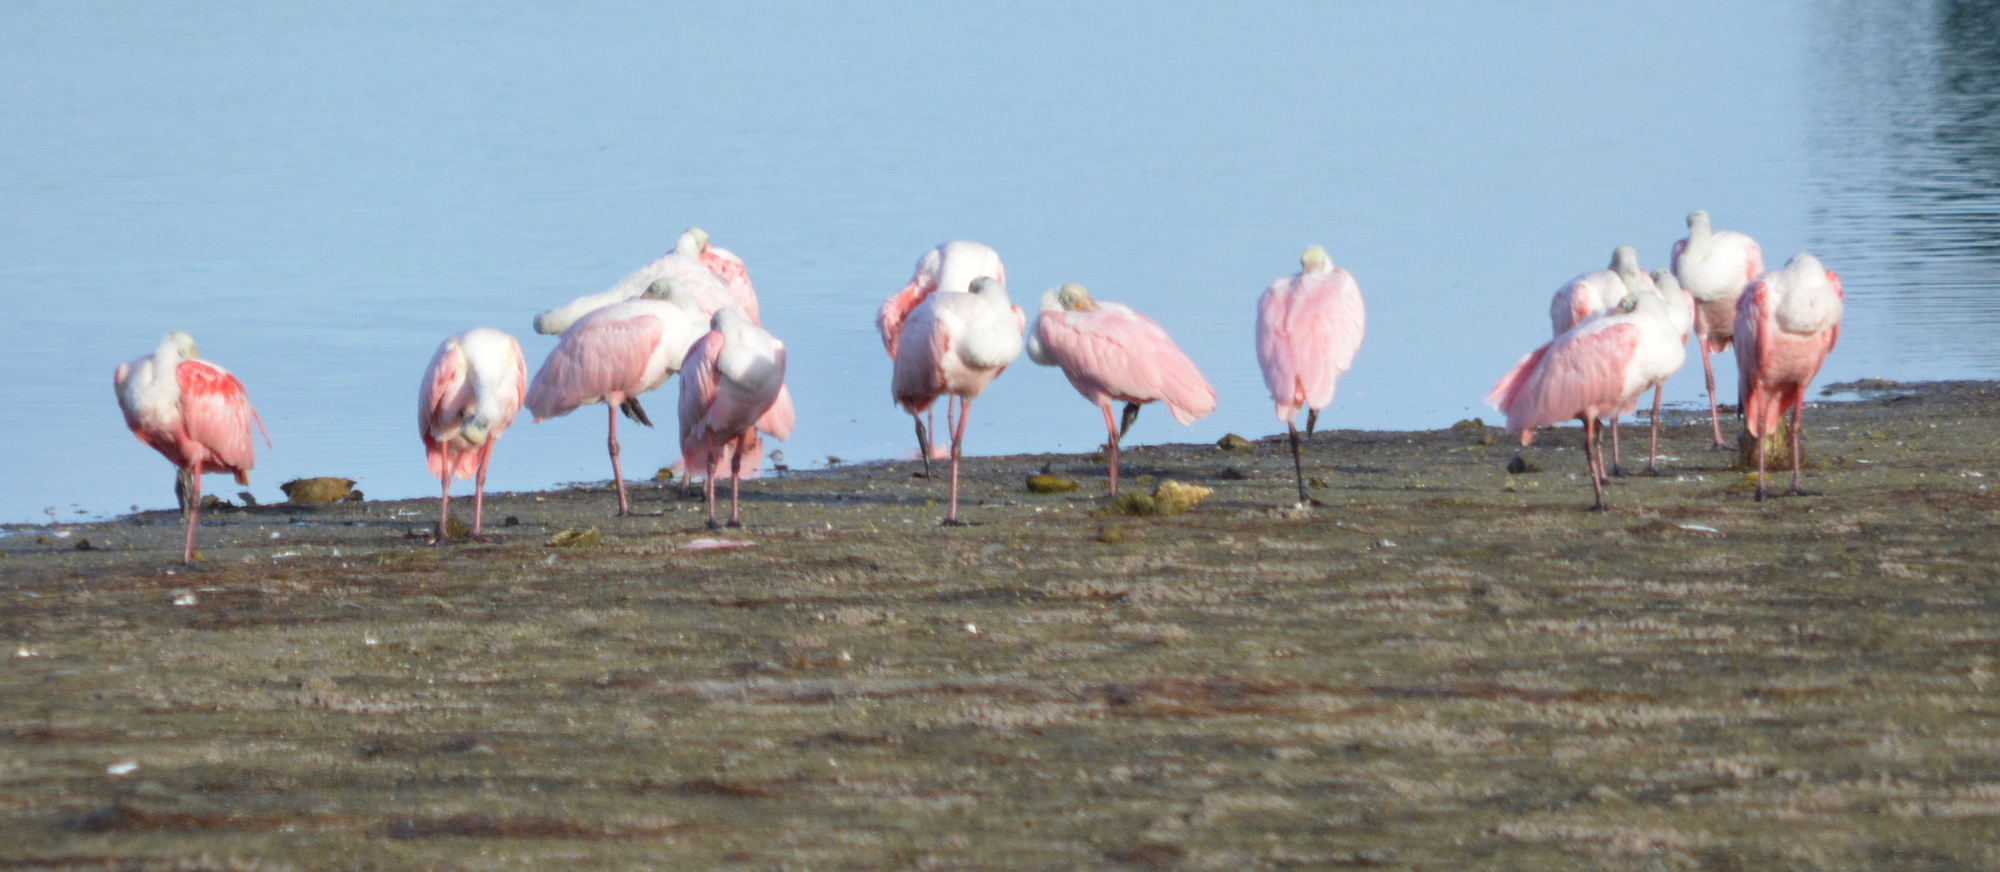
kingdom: Animalia
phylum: Chordata
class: Aves
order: Pelecaniformes
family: Threskiornithidae
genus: Platalea
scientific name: Platalea ajaja
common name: Roseate spoonbill
